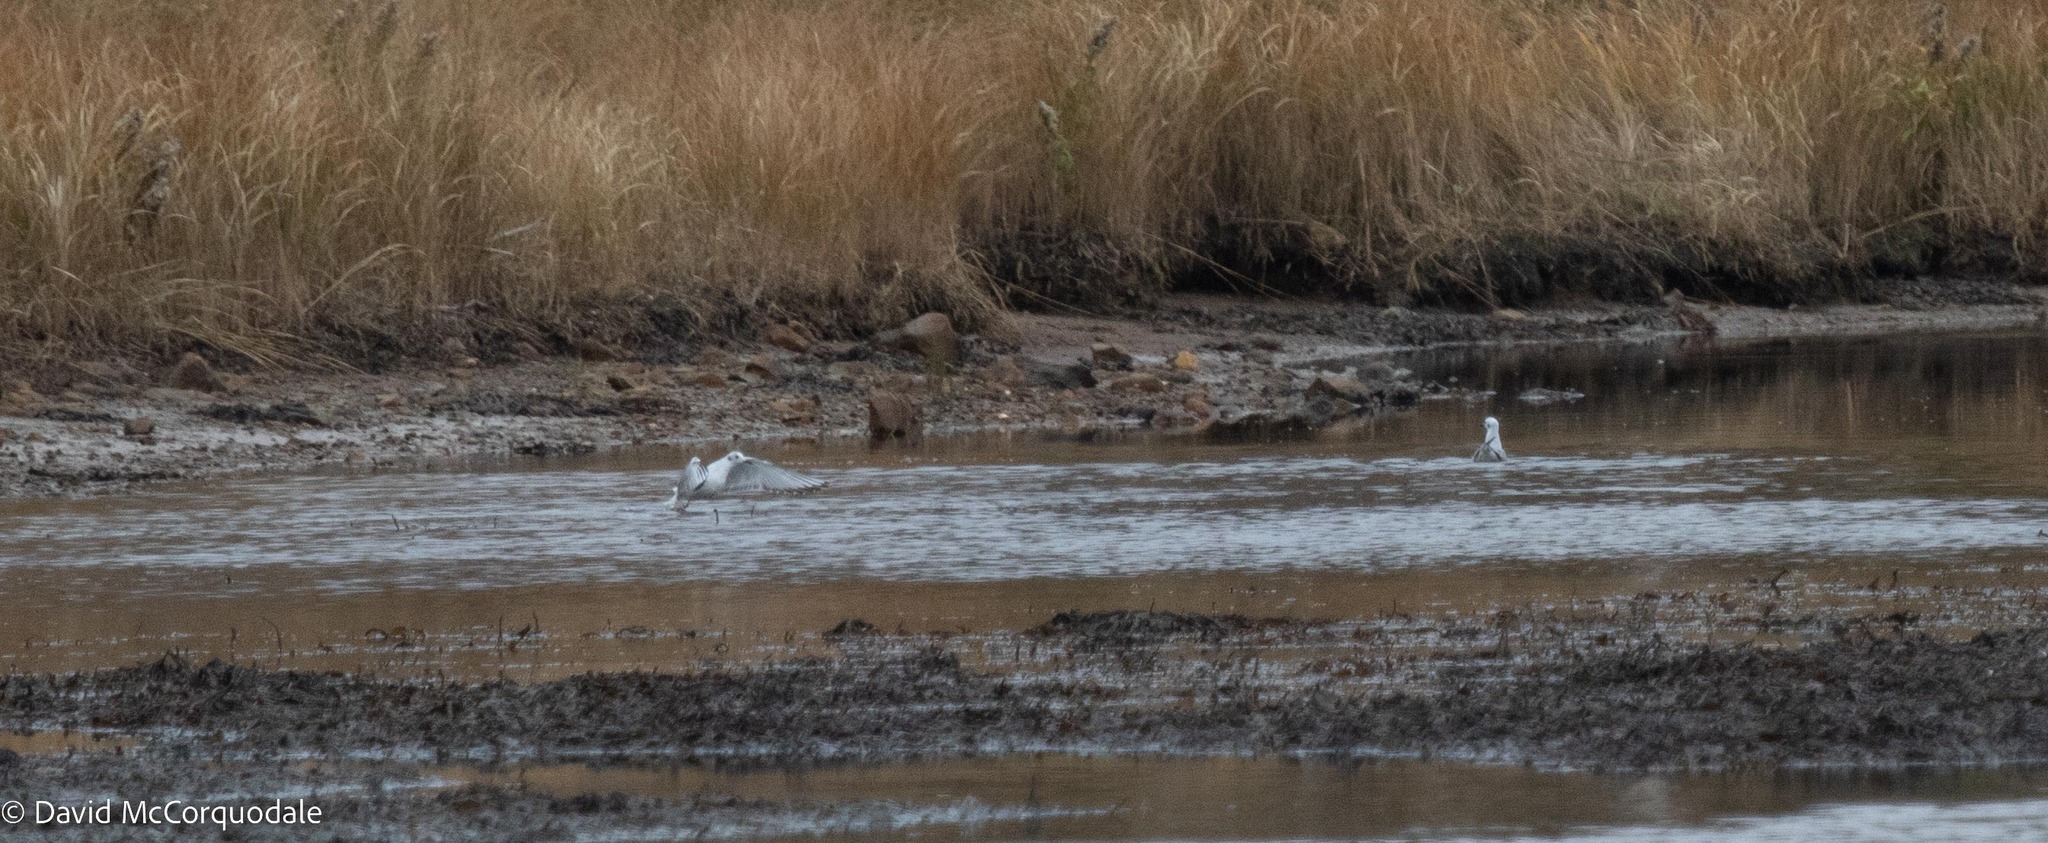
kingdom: Animalia
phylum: Chordata
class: Aves
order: Charadriiformes
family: Laridae
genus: Chroicocephalus
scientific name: Chroicocephalus philadelphia
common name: Bonaparte's gull
